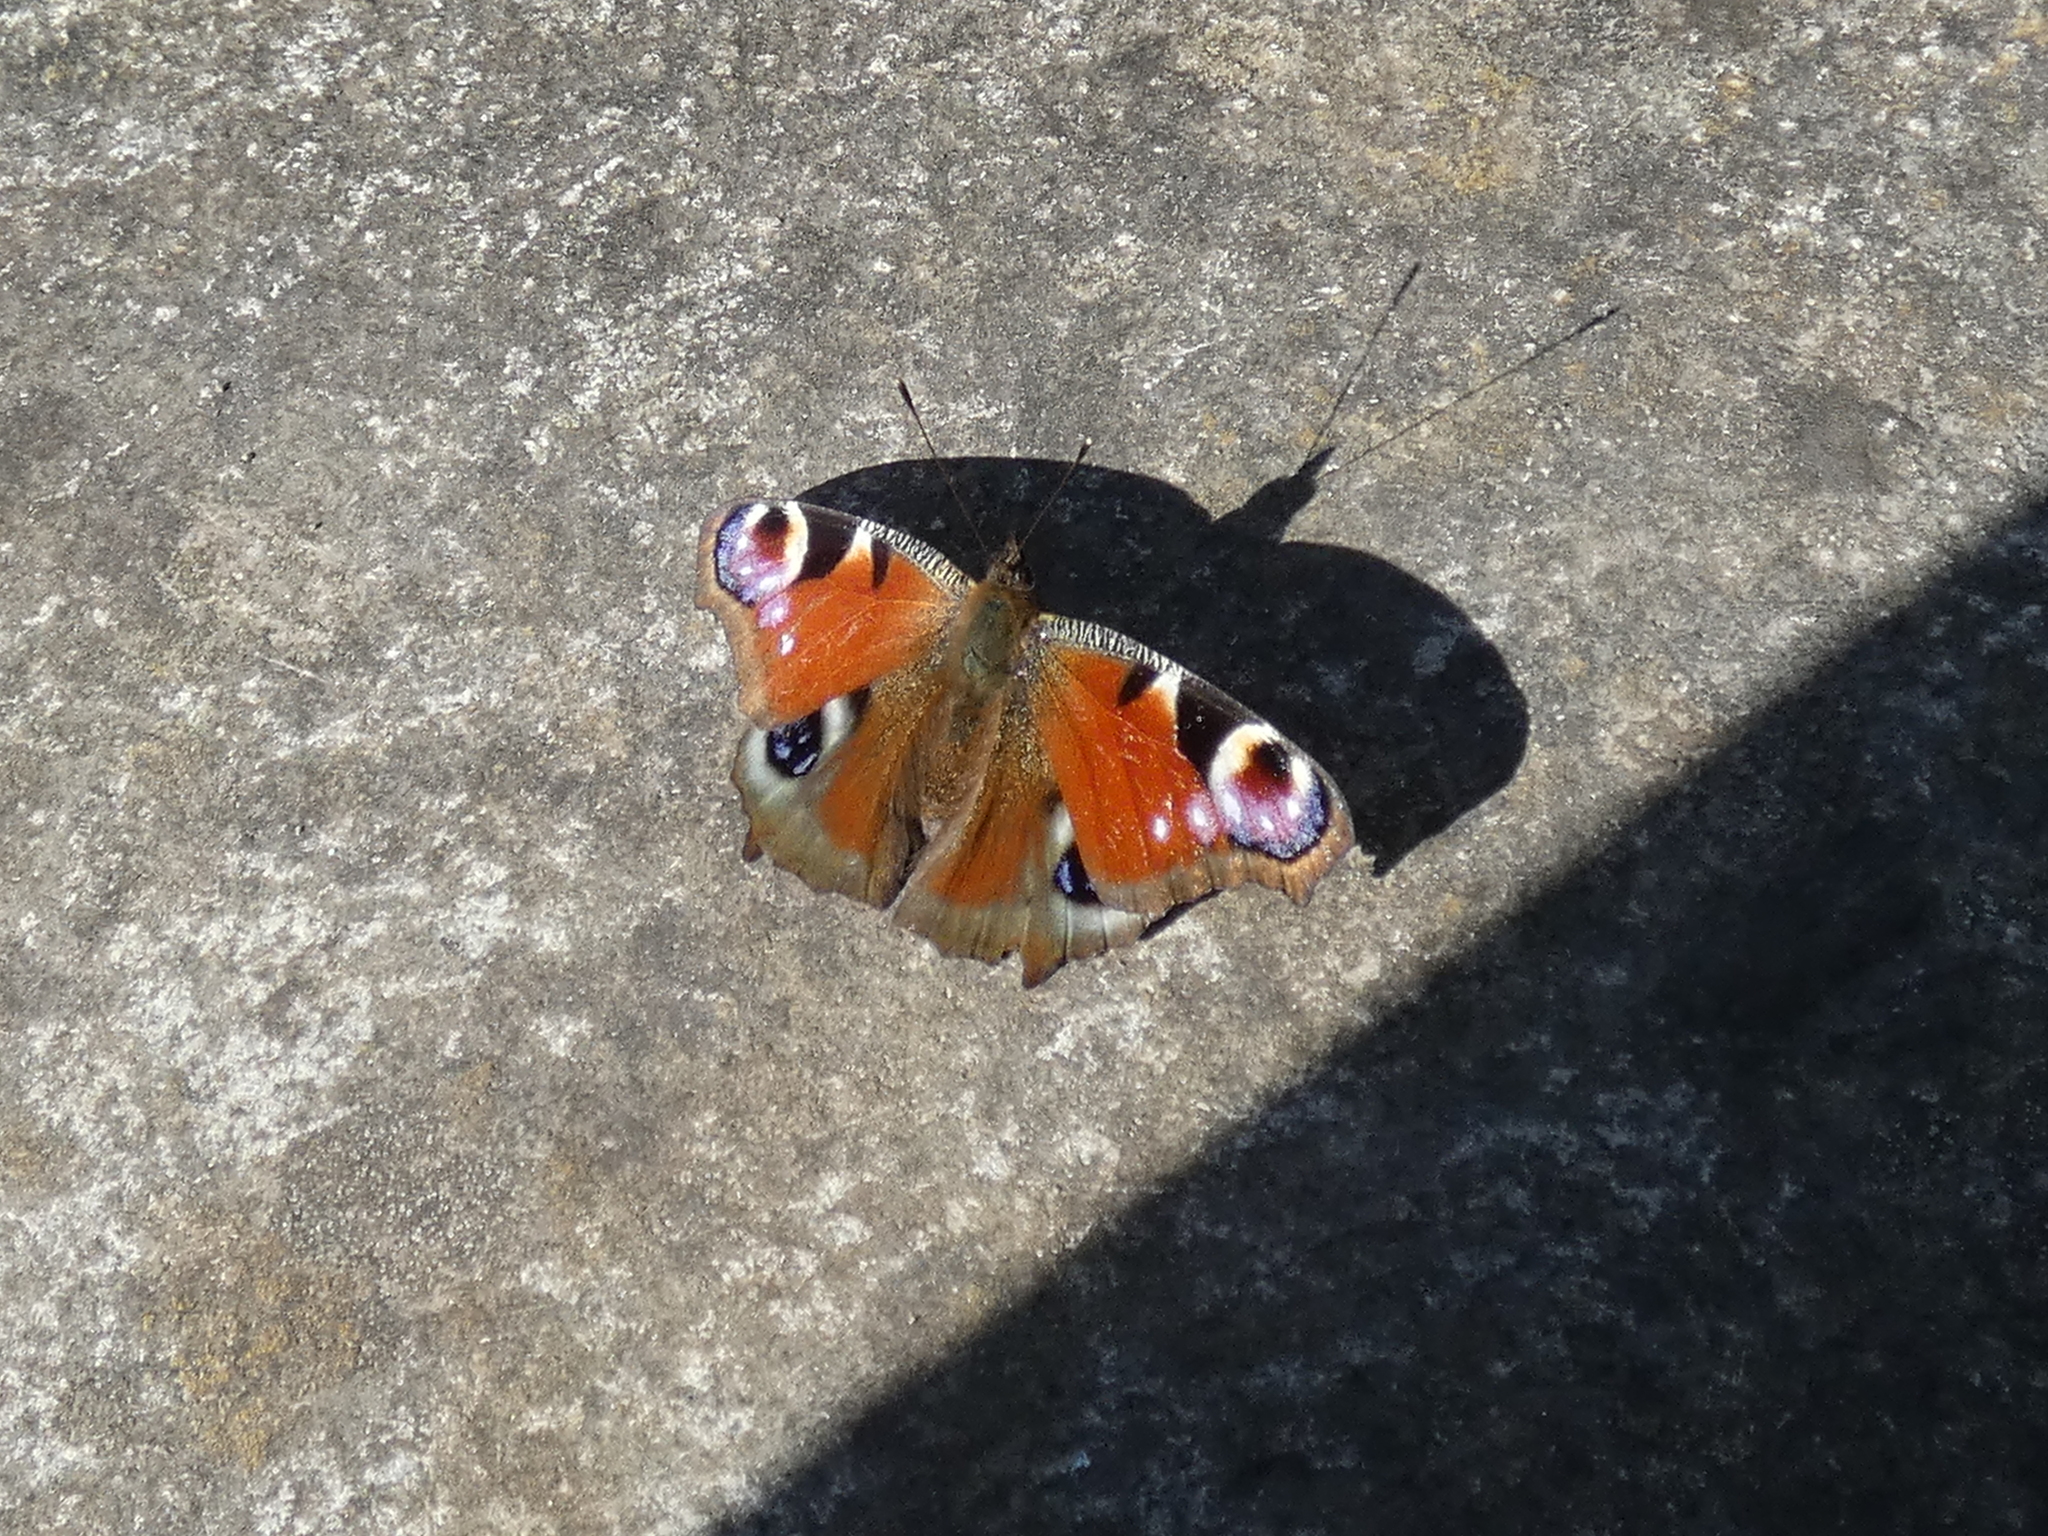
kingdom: Animalia
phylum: Arthropoda
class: Insecta
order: Lepidoptera
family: Nymphalidae
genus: Aglais
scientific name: Aglais io
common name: Peacock
